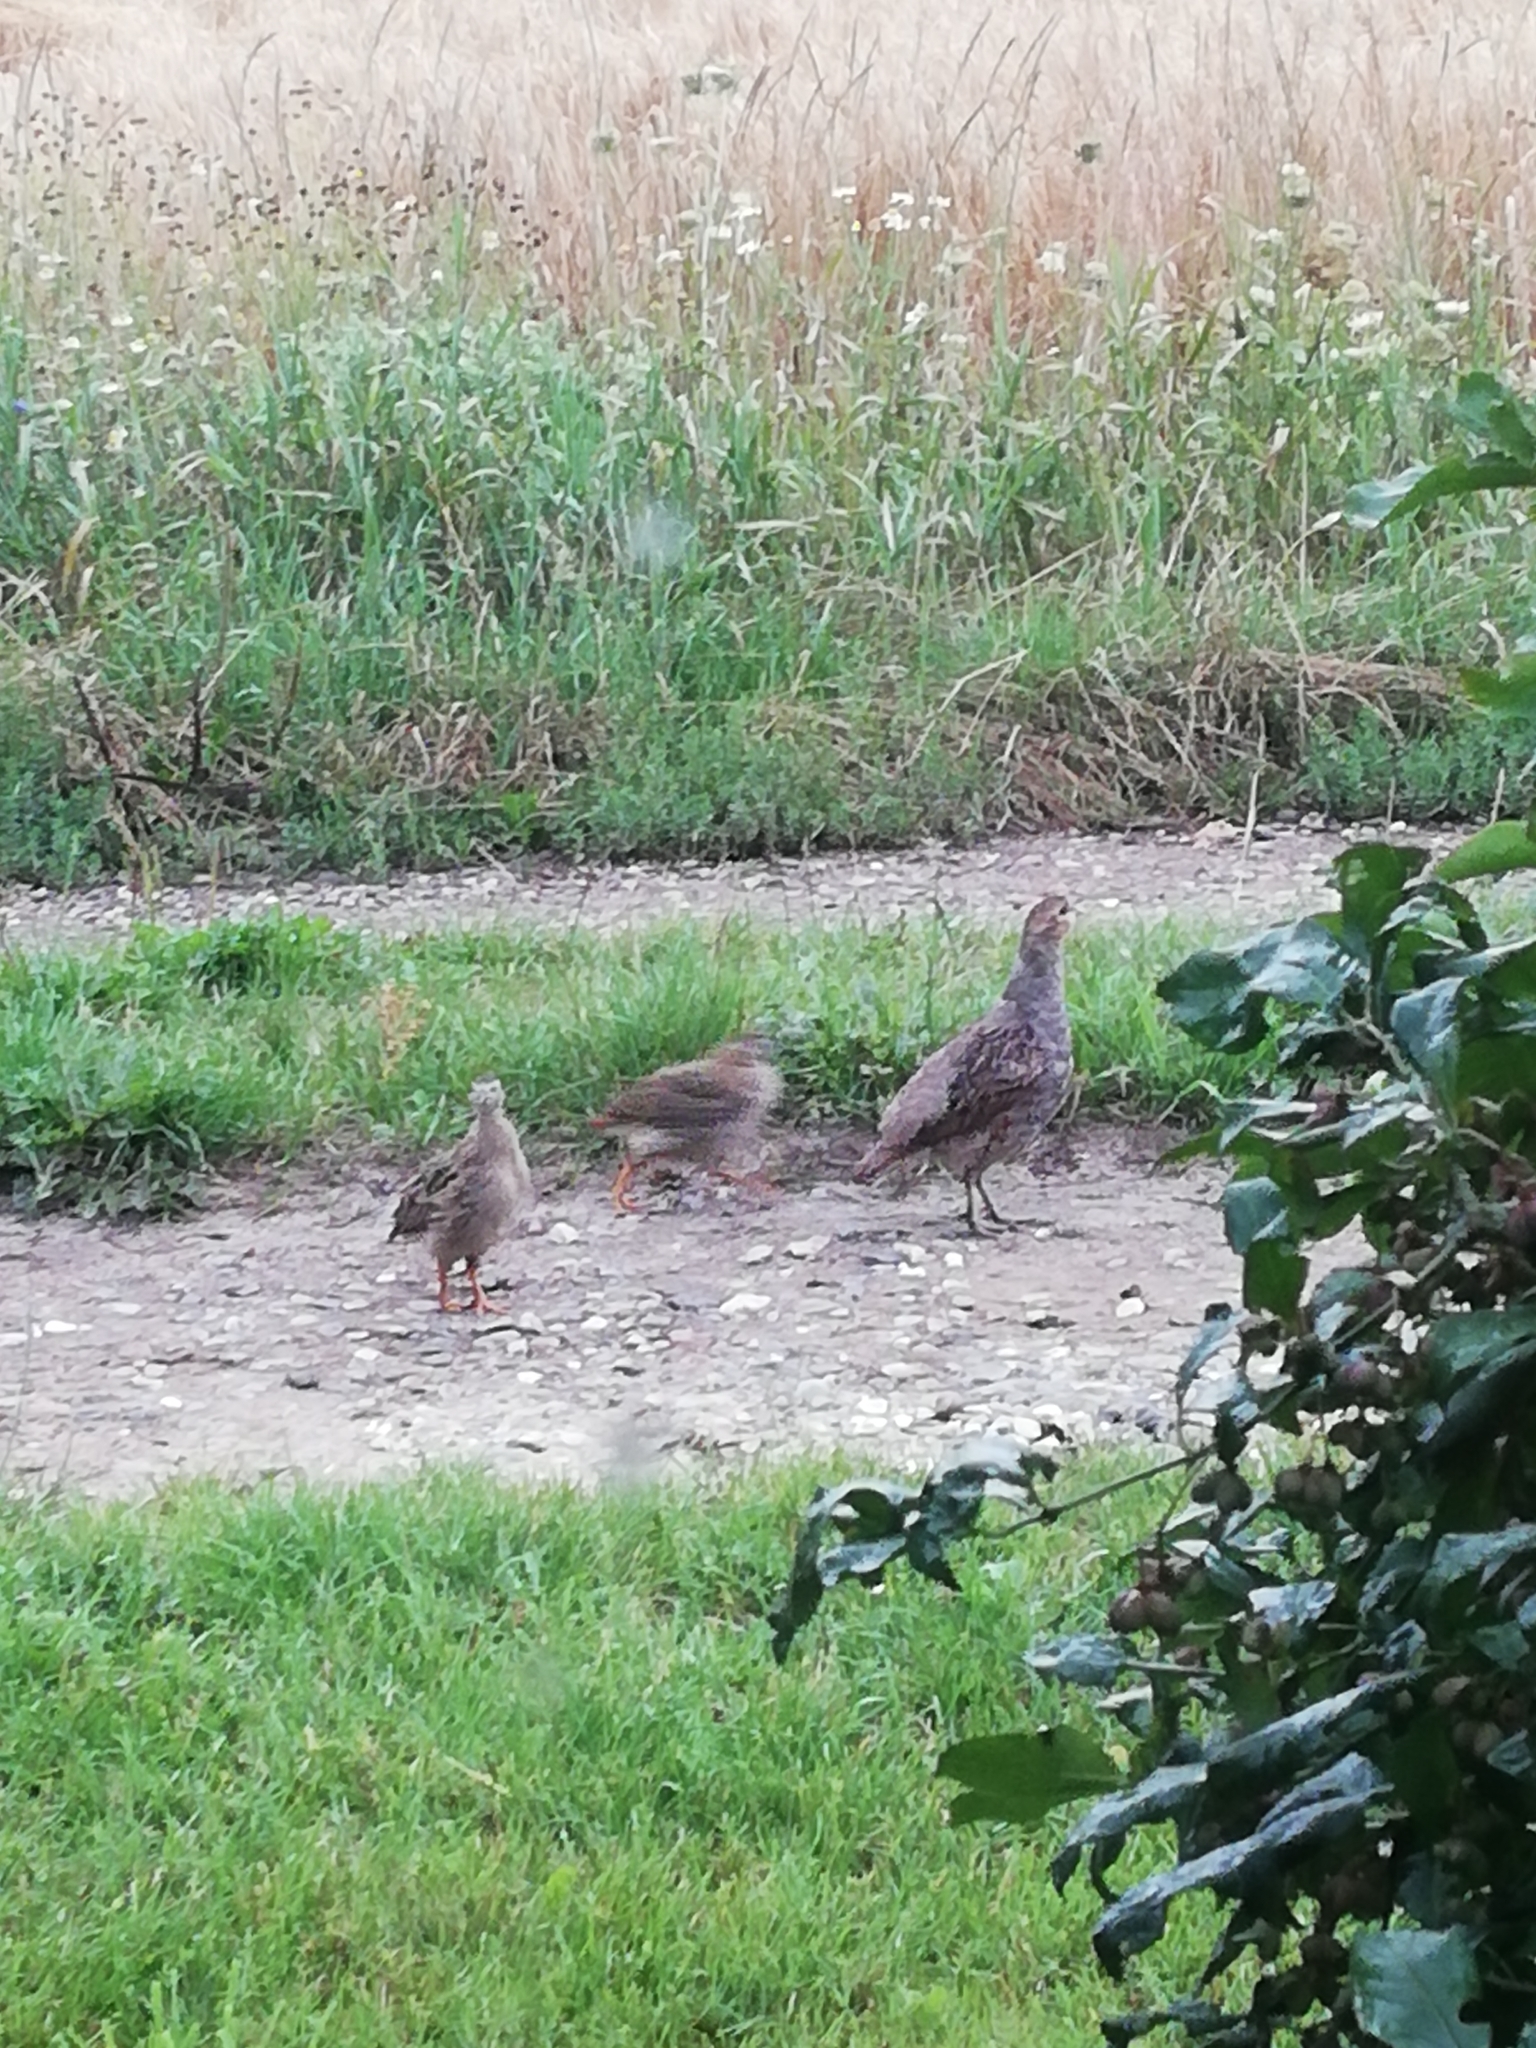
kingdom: Animalia
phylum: Chordata
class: Aves
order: Galliformes
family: Phasianidae
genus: Perdix
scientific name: Perdix perdix
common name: Grey partridge
